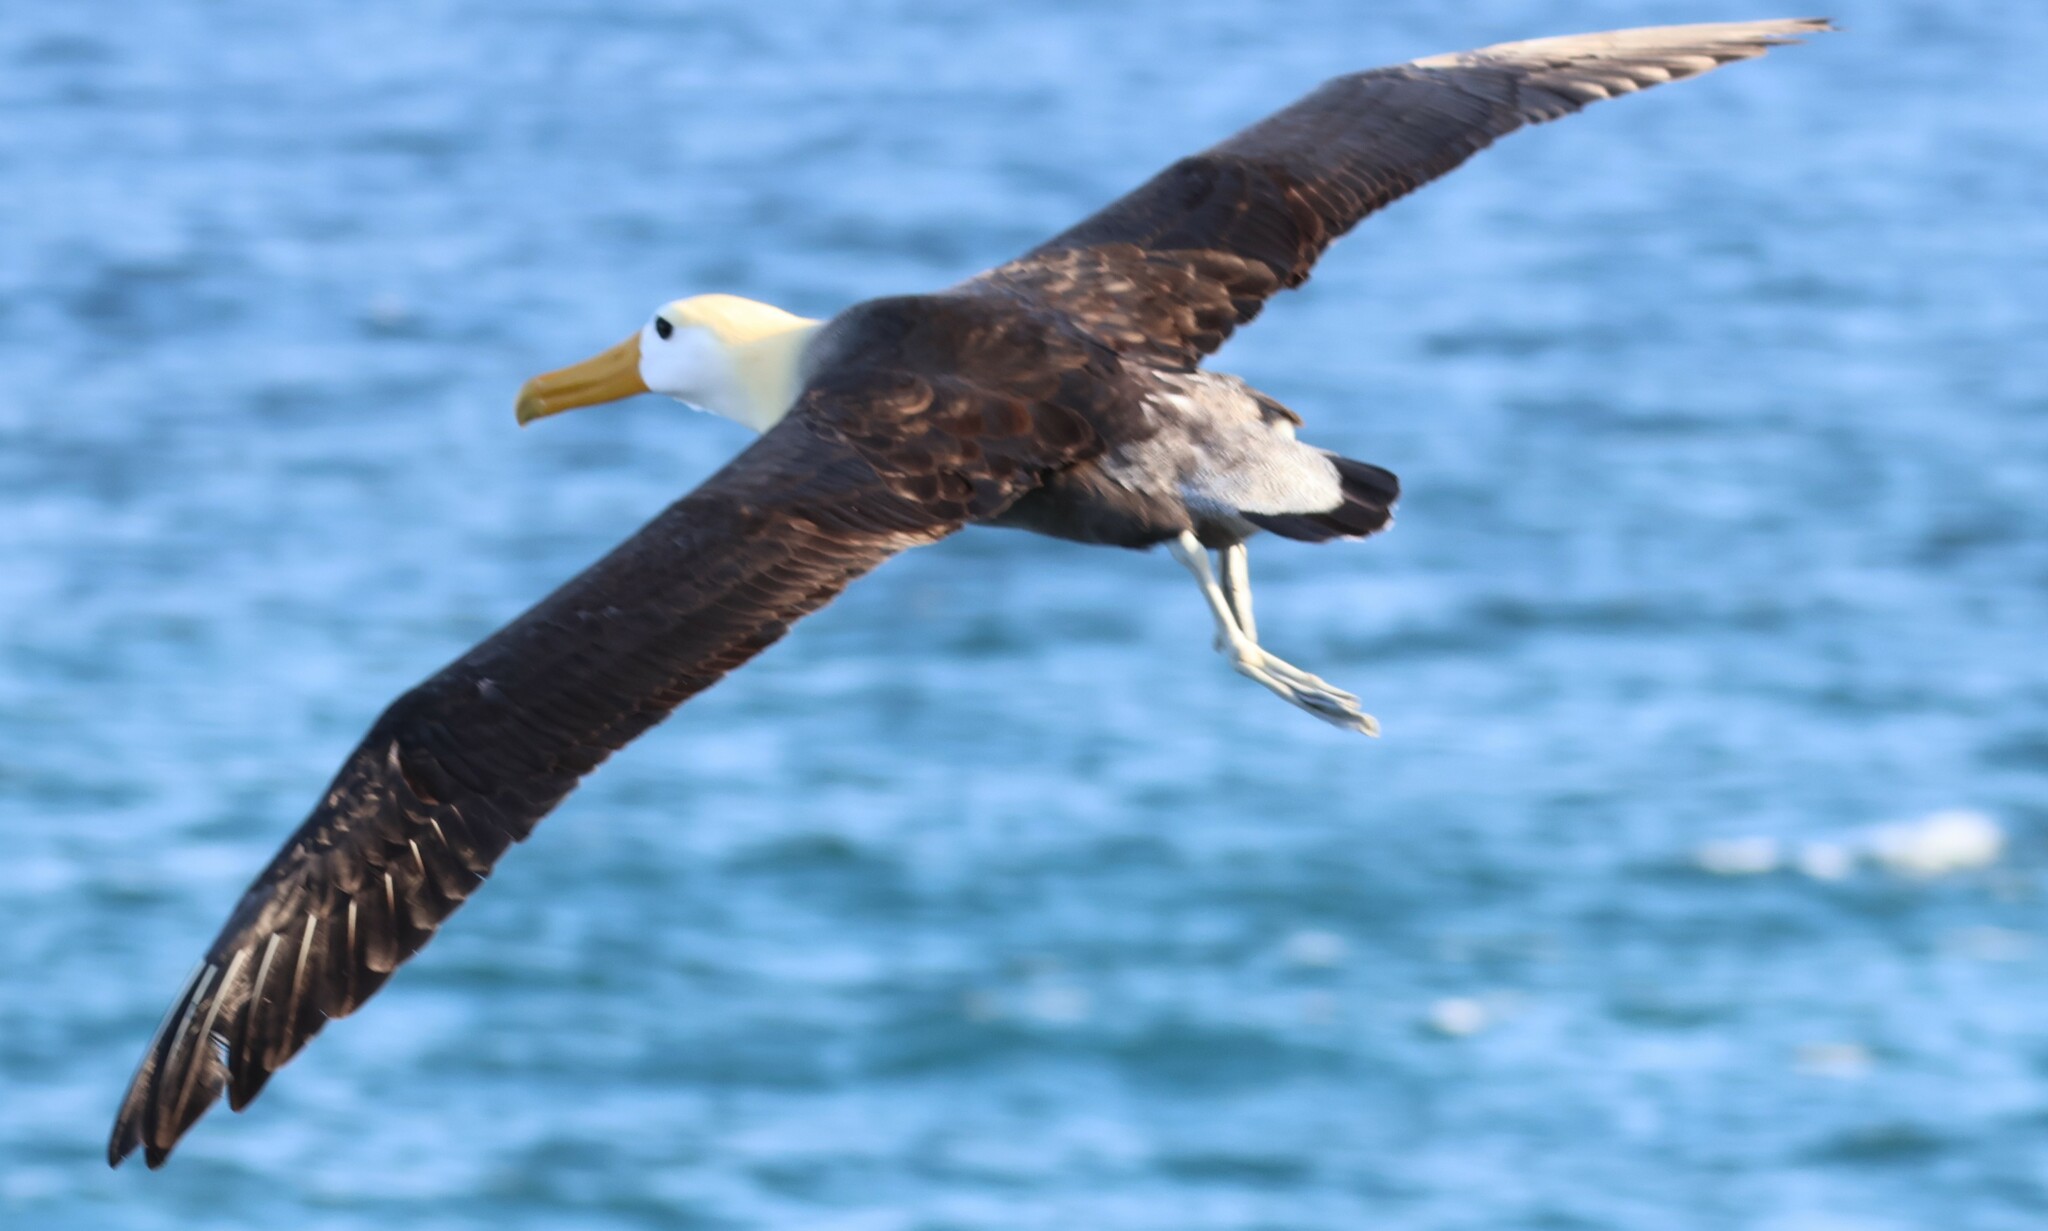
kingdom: Animalia
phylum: Chordata
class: Aves
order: Procellariiformes
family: Diomedeidae
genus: Phoebastria
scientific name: Phoebastria irrorata
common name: Waved albatross
